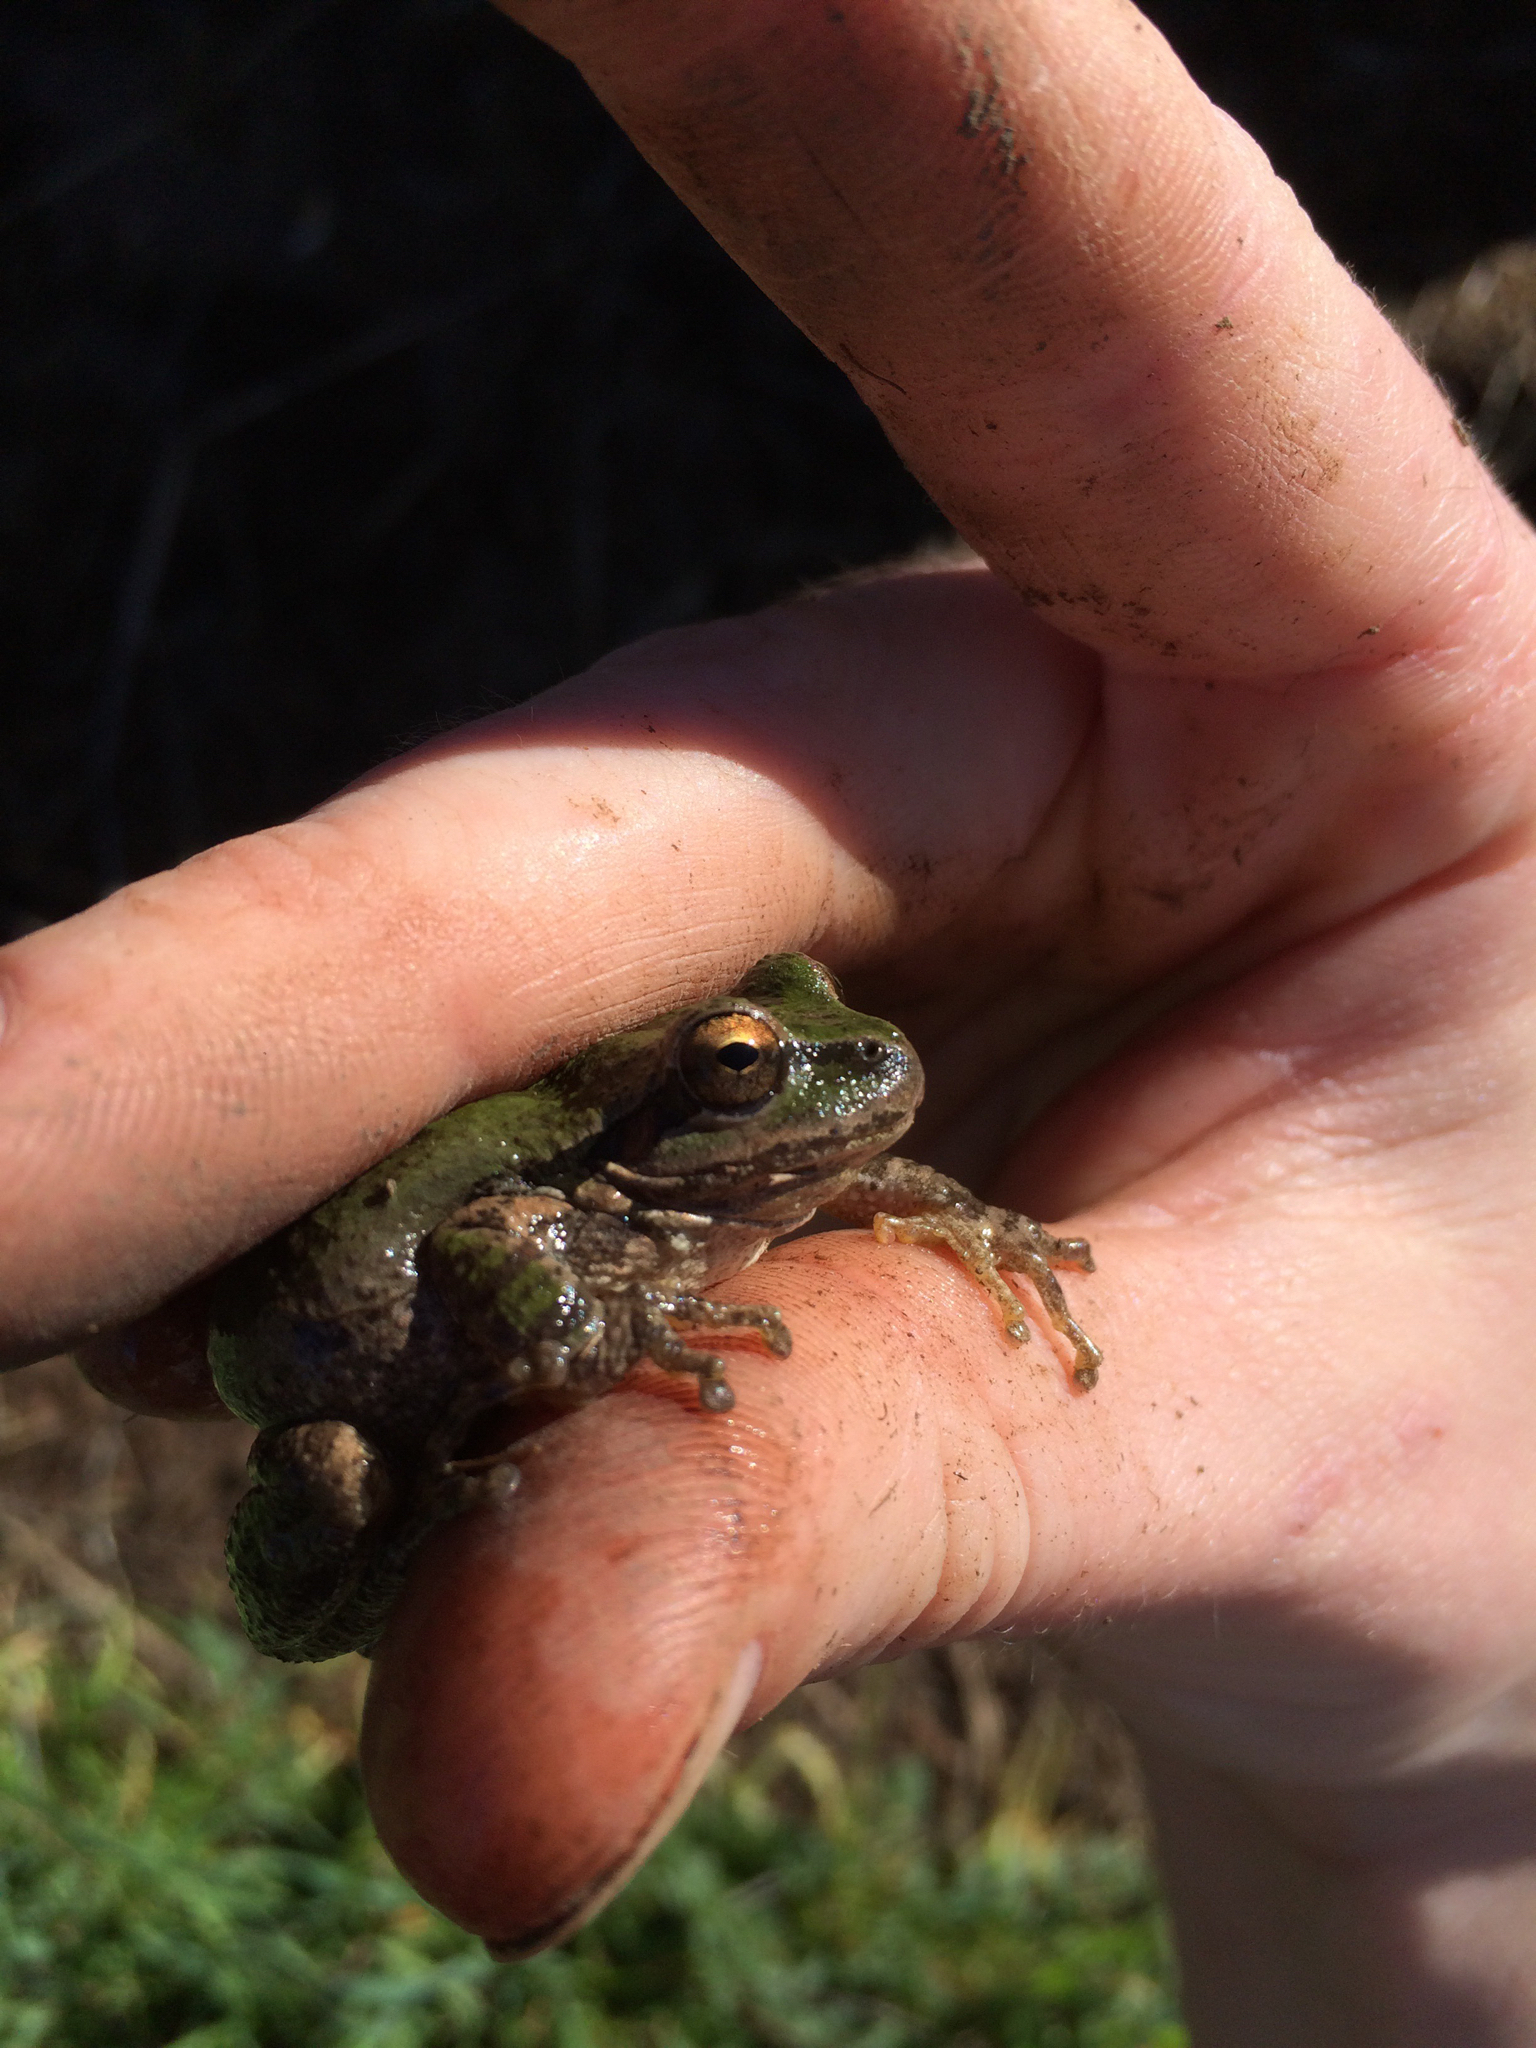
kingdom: Animalia
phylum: Chordata
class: Amphibia
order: Anura
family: Hylidae
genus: Pseudacris
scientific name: Pseudacris regilla
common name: Pacific chorus frog
